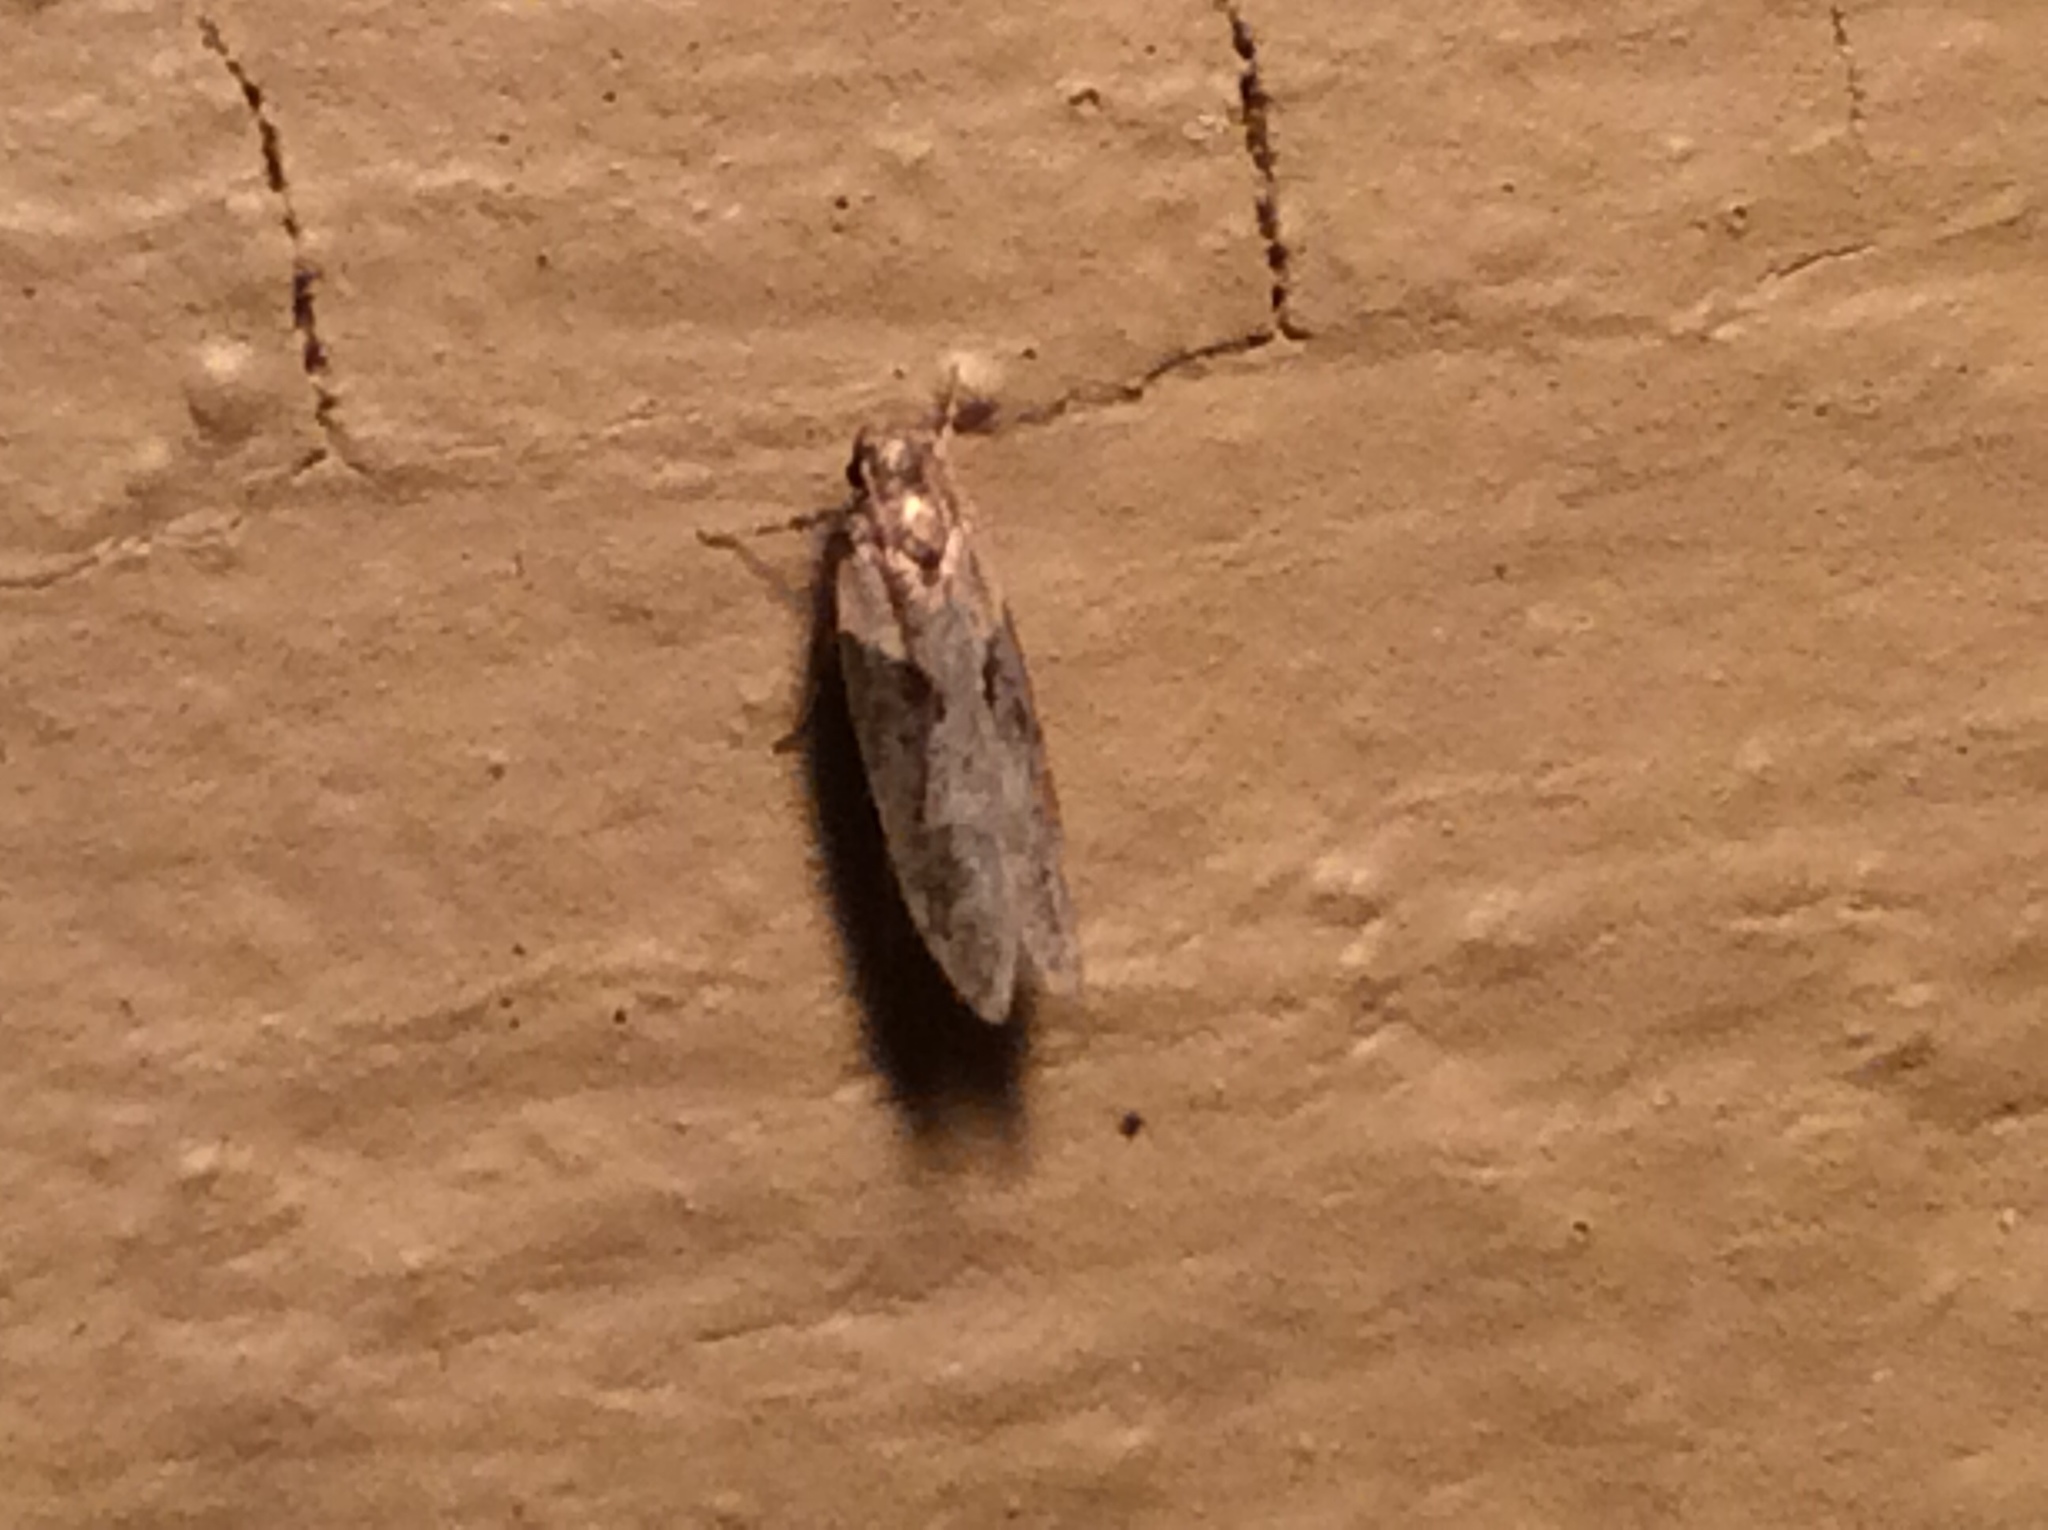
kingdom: Animalia
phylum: Arthropoda
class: Insecta
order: Lepidoptera
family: Gelechiidae
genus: Chionodes
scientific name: Chionodes mediofuscella
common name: Black-smudged chionodes moth
